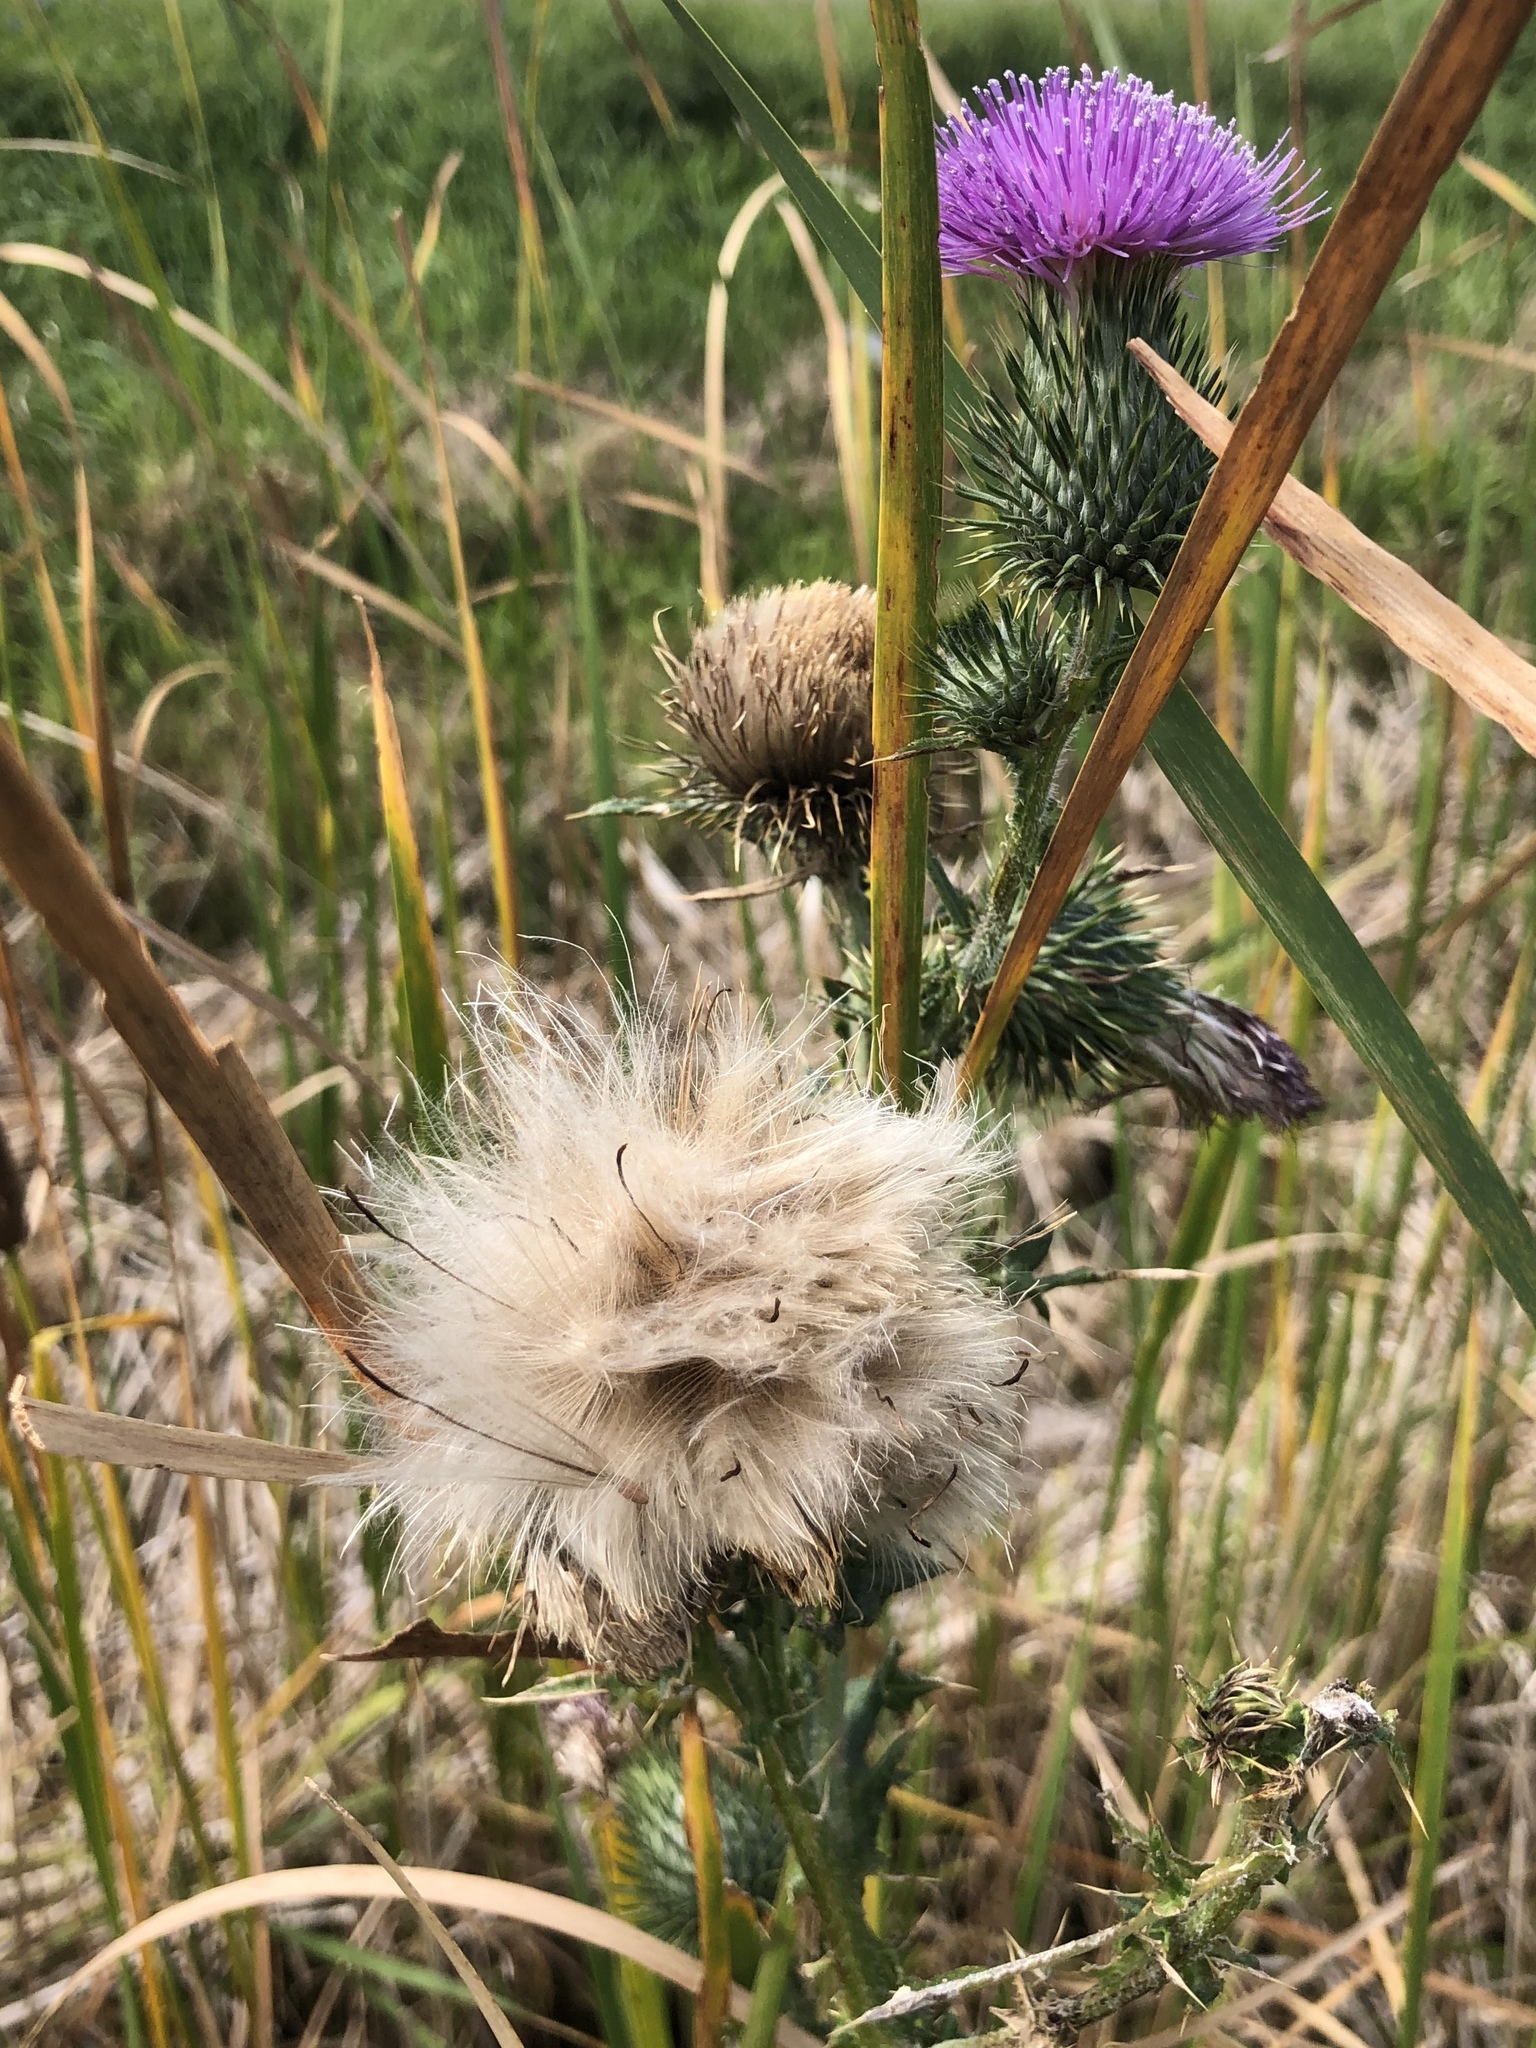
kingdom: Plantae
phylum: Tracheophyta
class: Magnoliopsida
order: Asterales
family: Asteraceae
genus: Cirsium
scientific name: Cirsium vulgare
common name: Bull thistle
